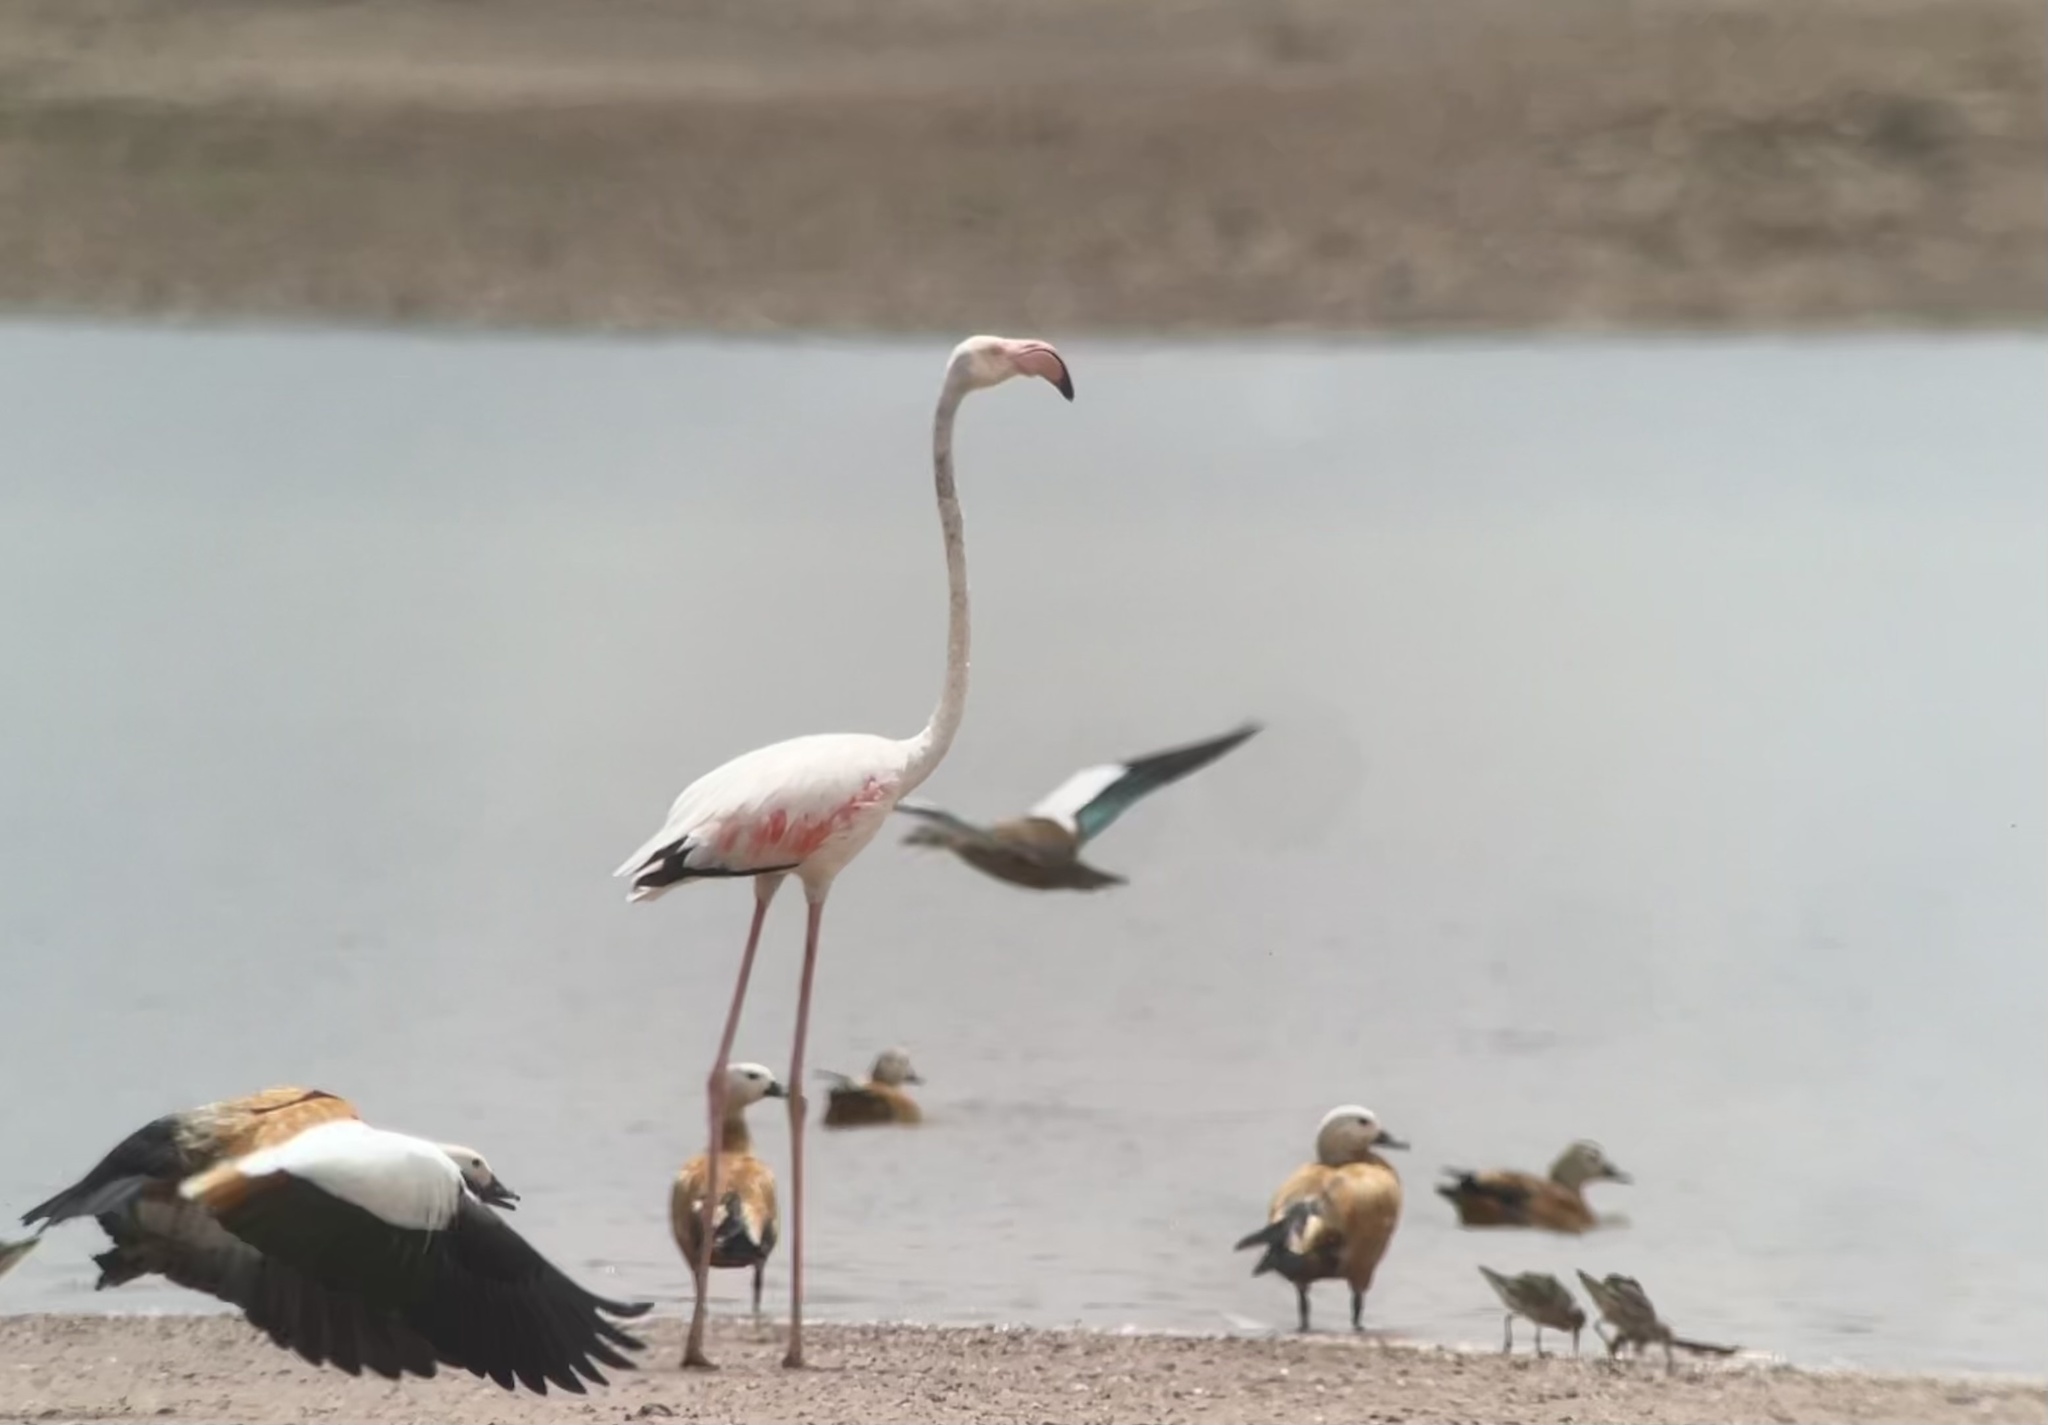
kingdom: Animalia
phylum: Chordata
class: Aves
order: Phoenicopteriformes
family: Phoenicopteridae
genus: Phoenicopterus
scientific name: Phoenicopterus roseus
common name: Greater flamingo
